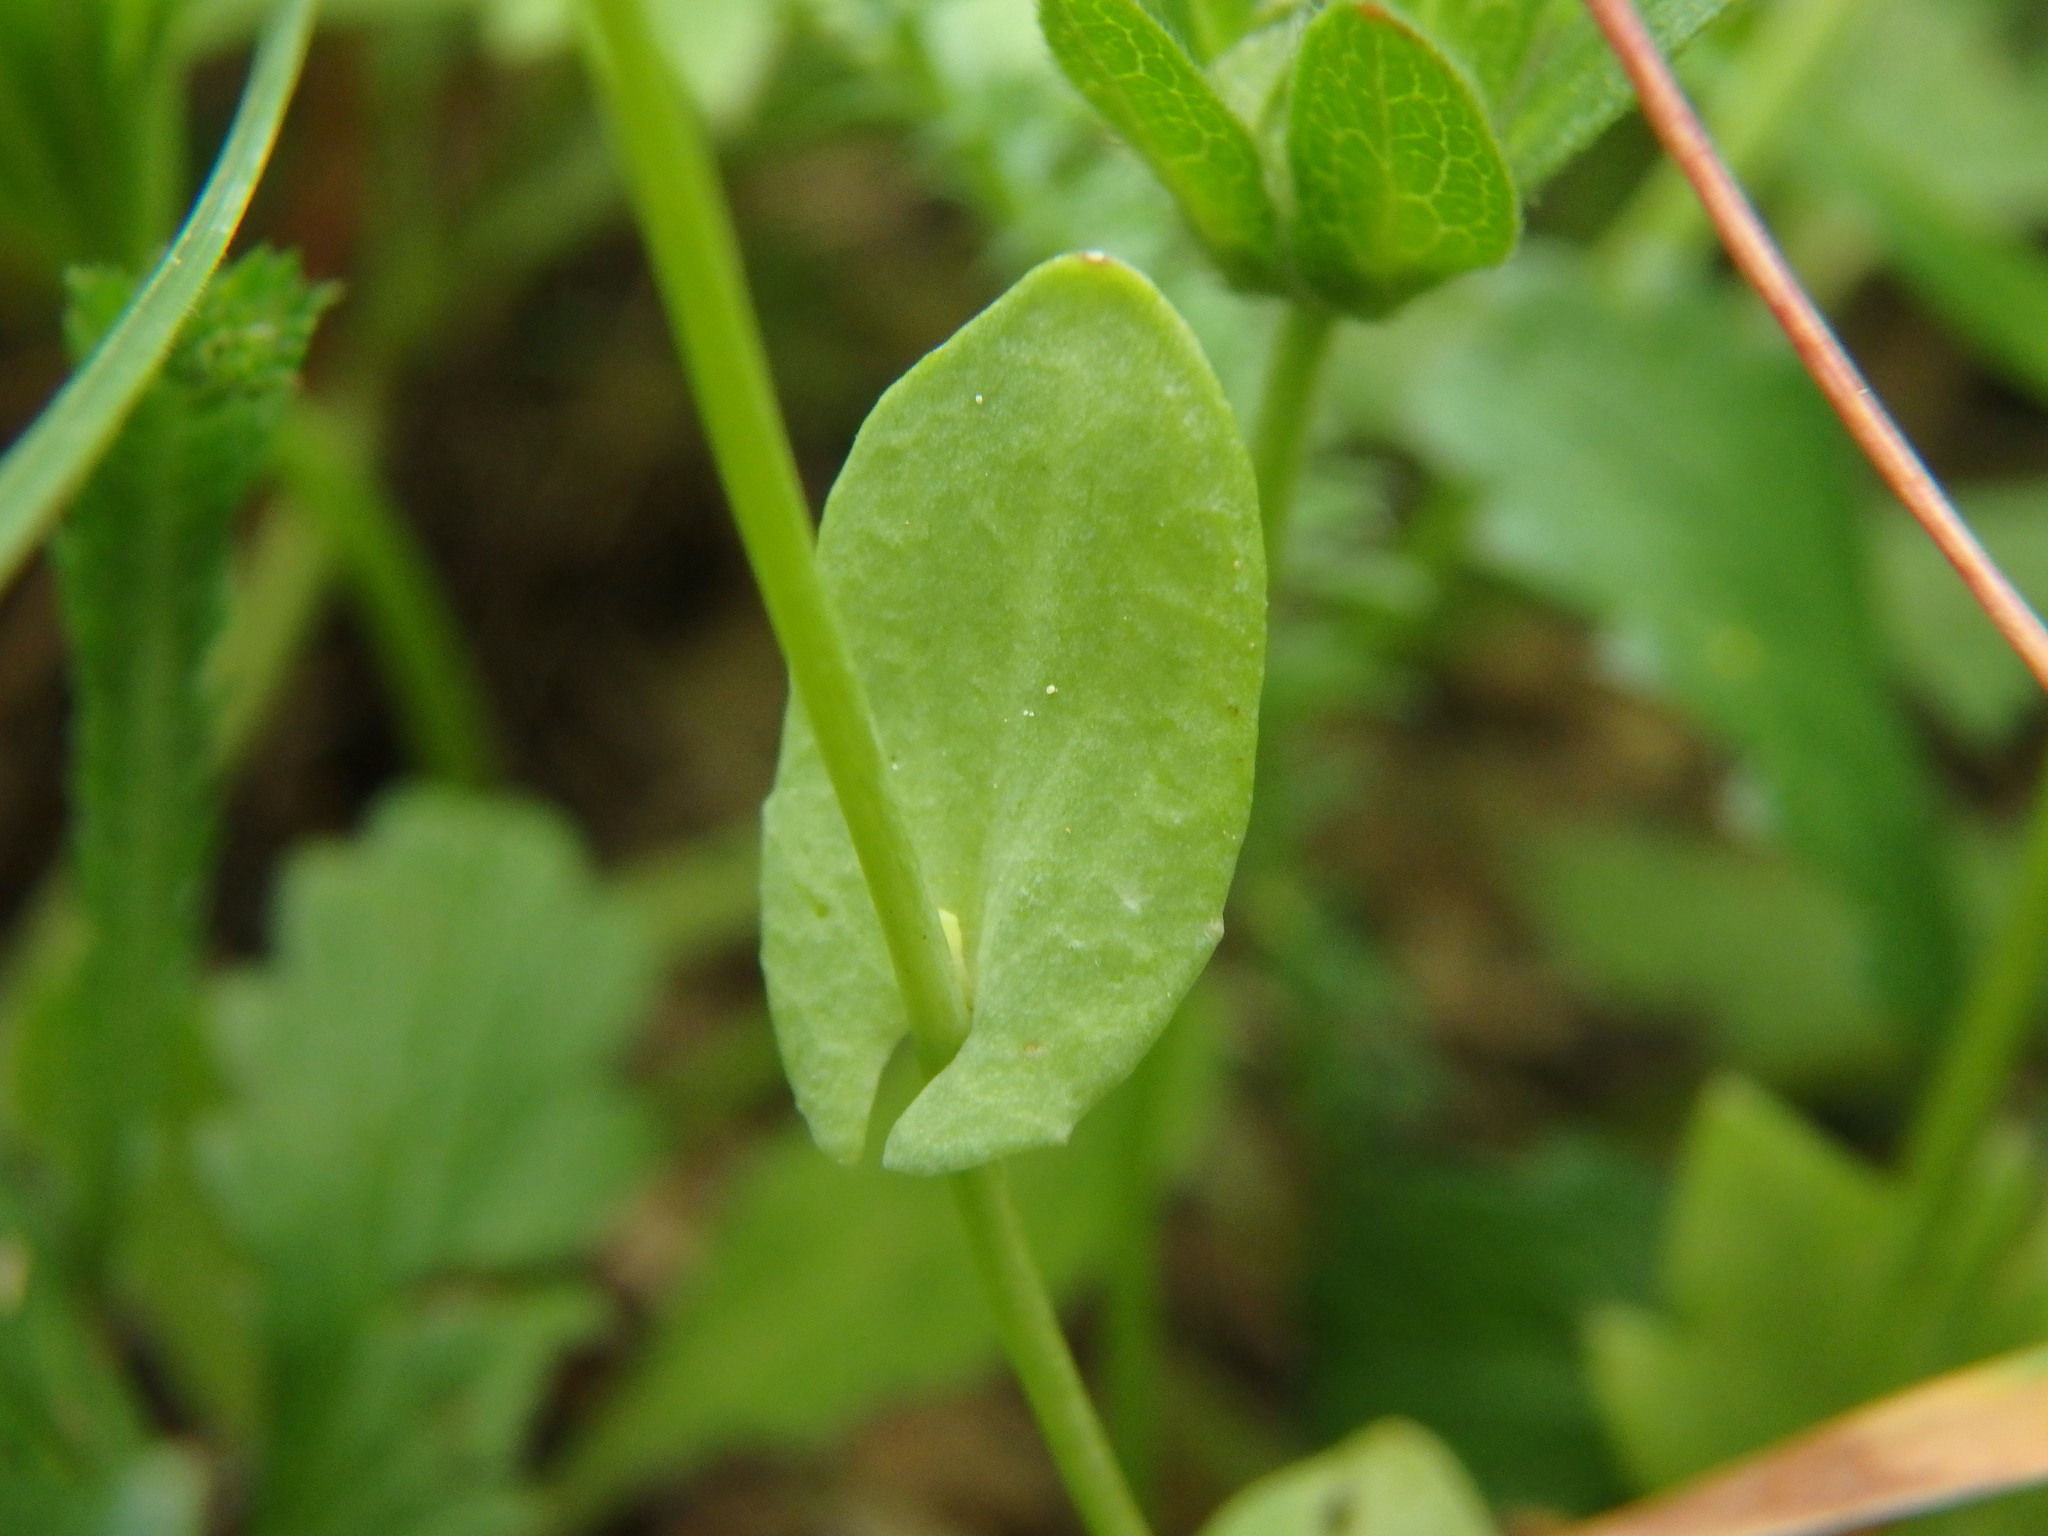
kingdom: Plantae
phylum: Tracheophyta
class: Magnoliopsida
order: Brassicales
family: Brassicaceae
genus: Noccaea
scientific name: Noccaea perfoliata
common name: Perfoliate pennycress
